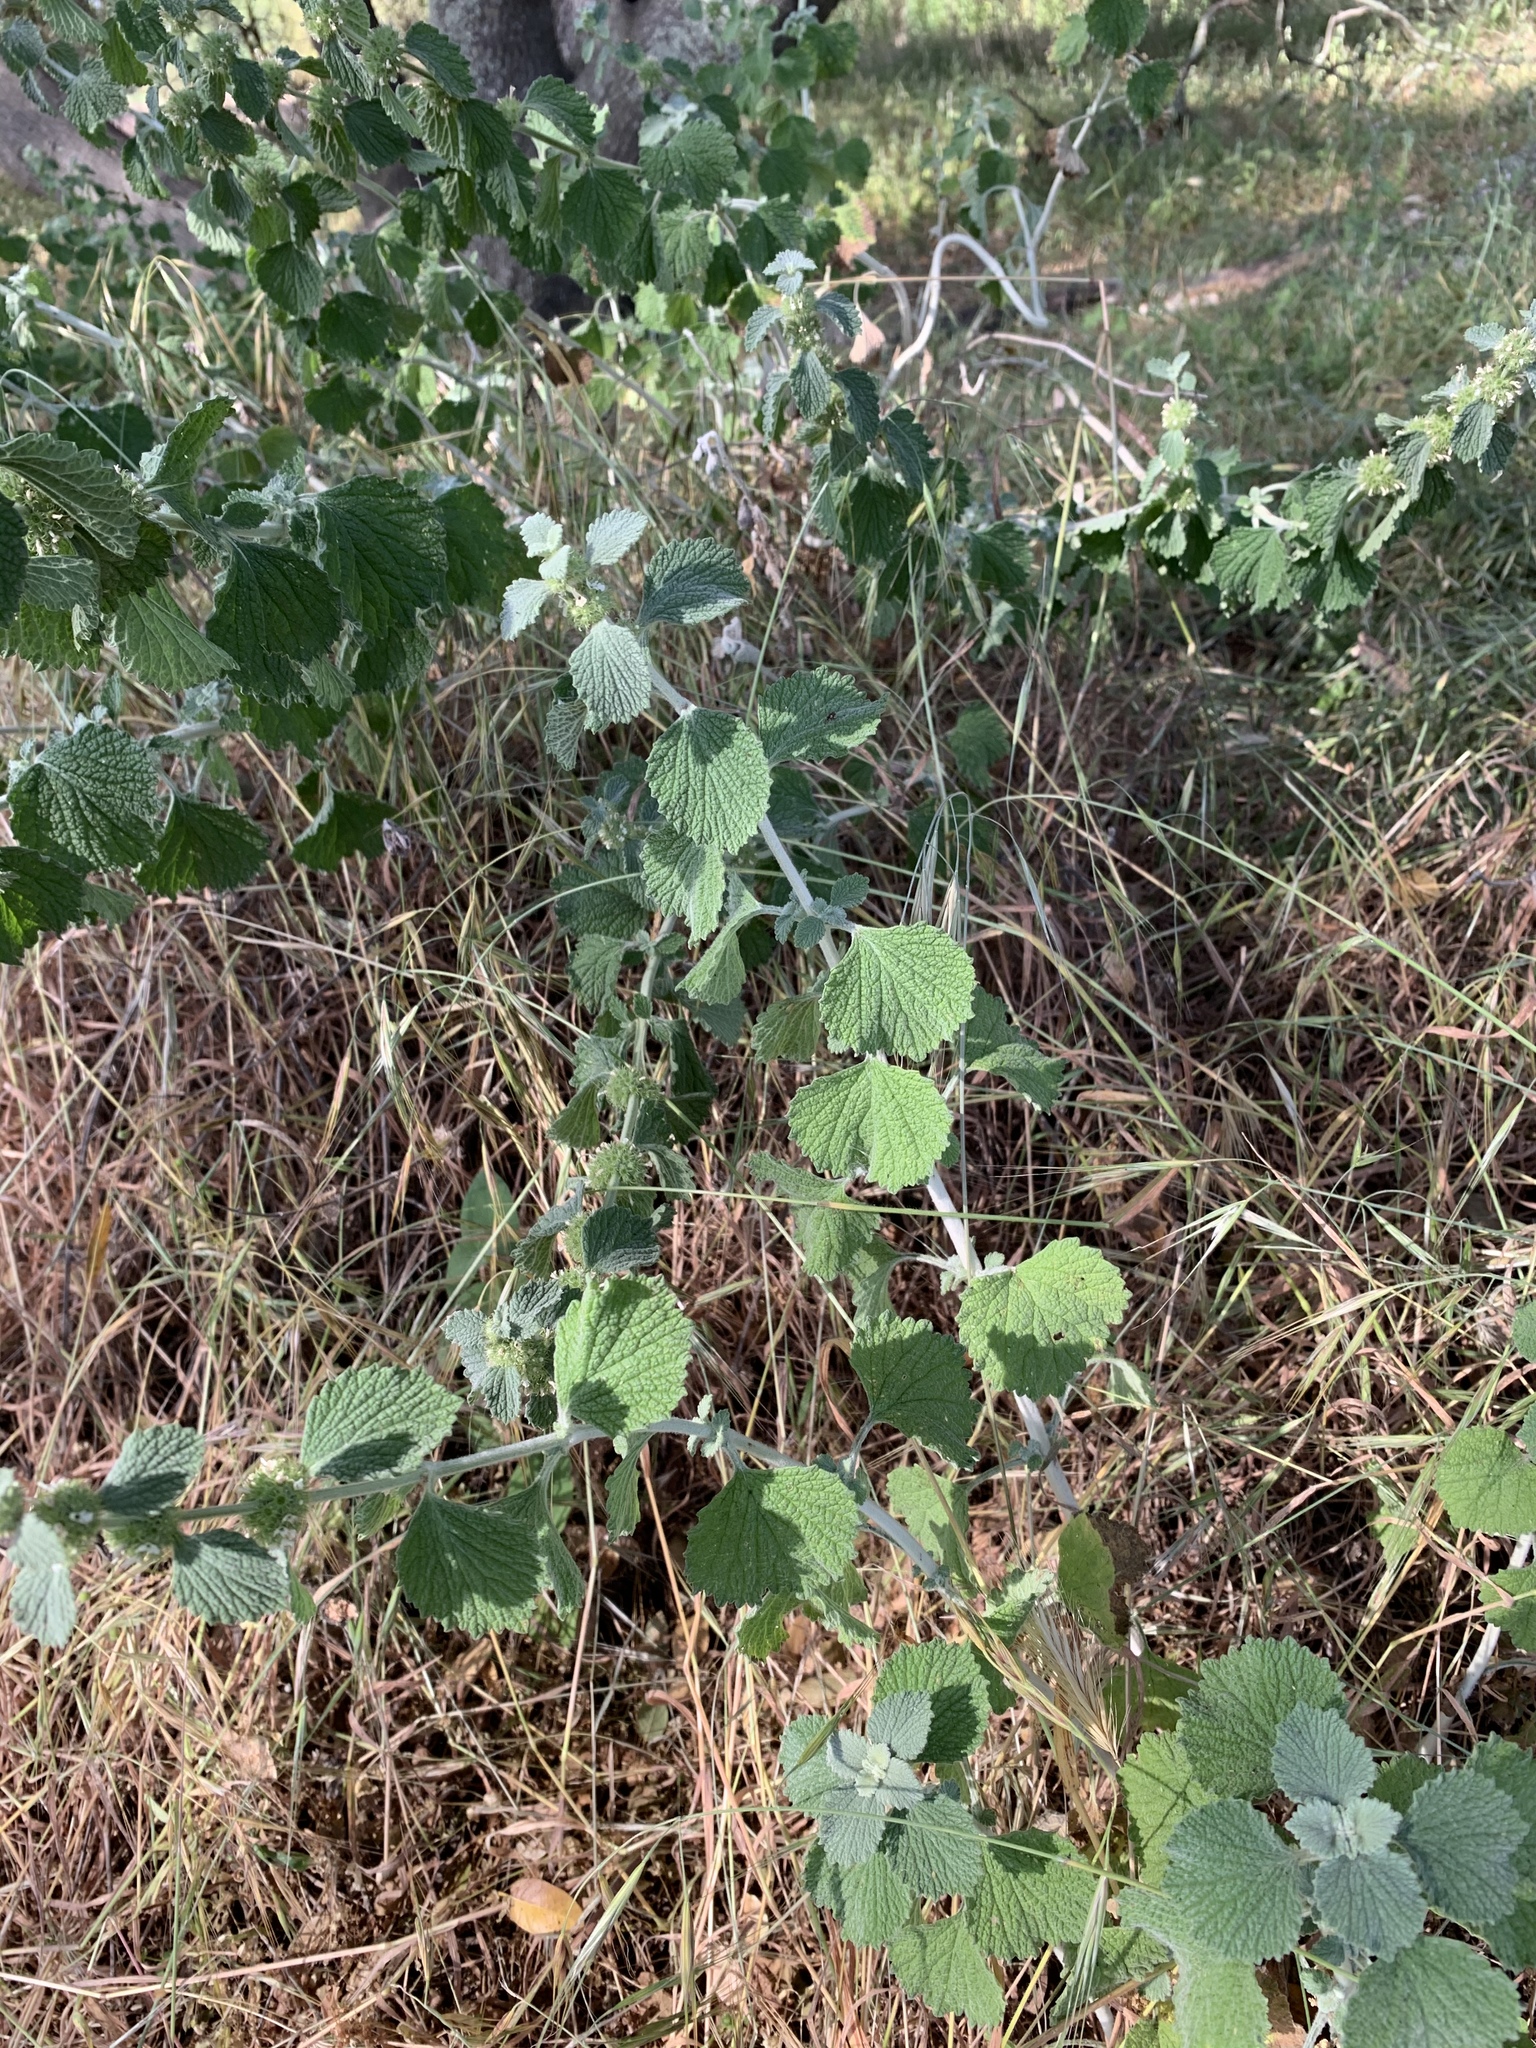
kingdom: Plantae
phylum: Tracheophyta
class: Magnoliopsida
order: Lamiales
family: Lamiaceae
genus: Marrubium
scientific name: Marrubium vulgare
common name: Horehound
